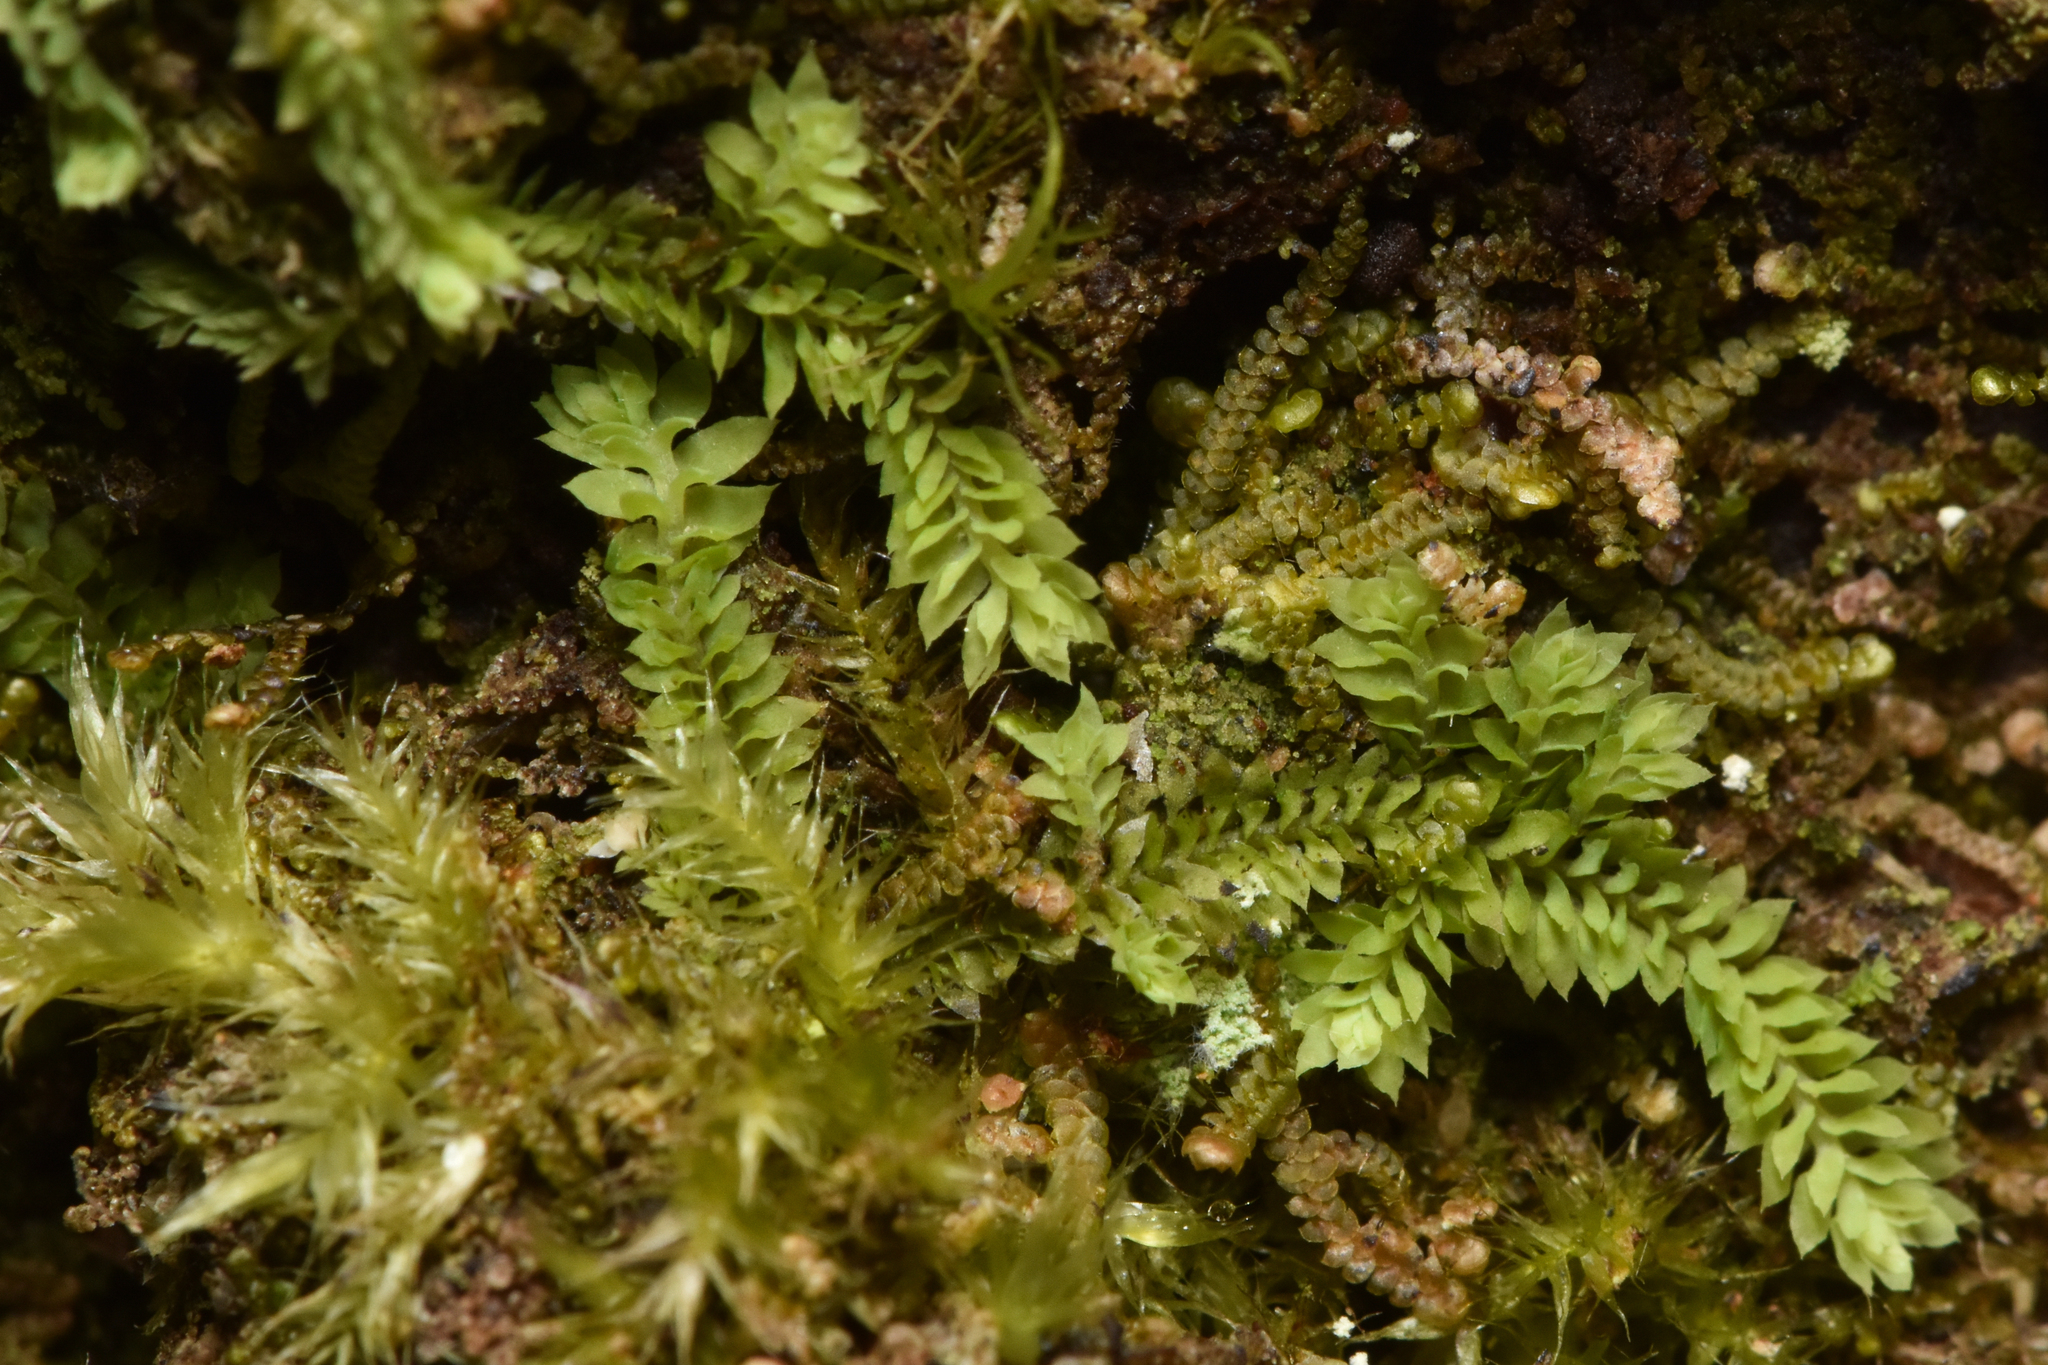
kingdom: Plantae
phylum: Marchantiophyta
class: Jungermanniopsida
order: Jungermanniales
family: Scapaniaceae
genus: Douinia
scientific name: Douinia ovata
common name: Waxy earwort
